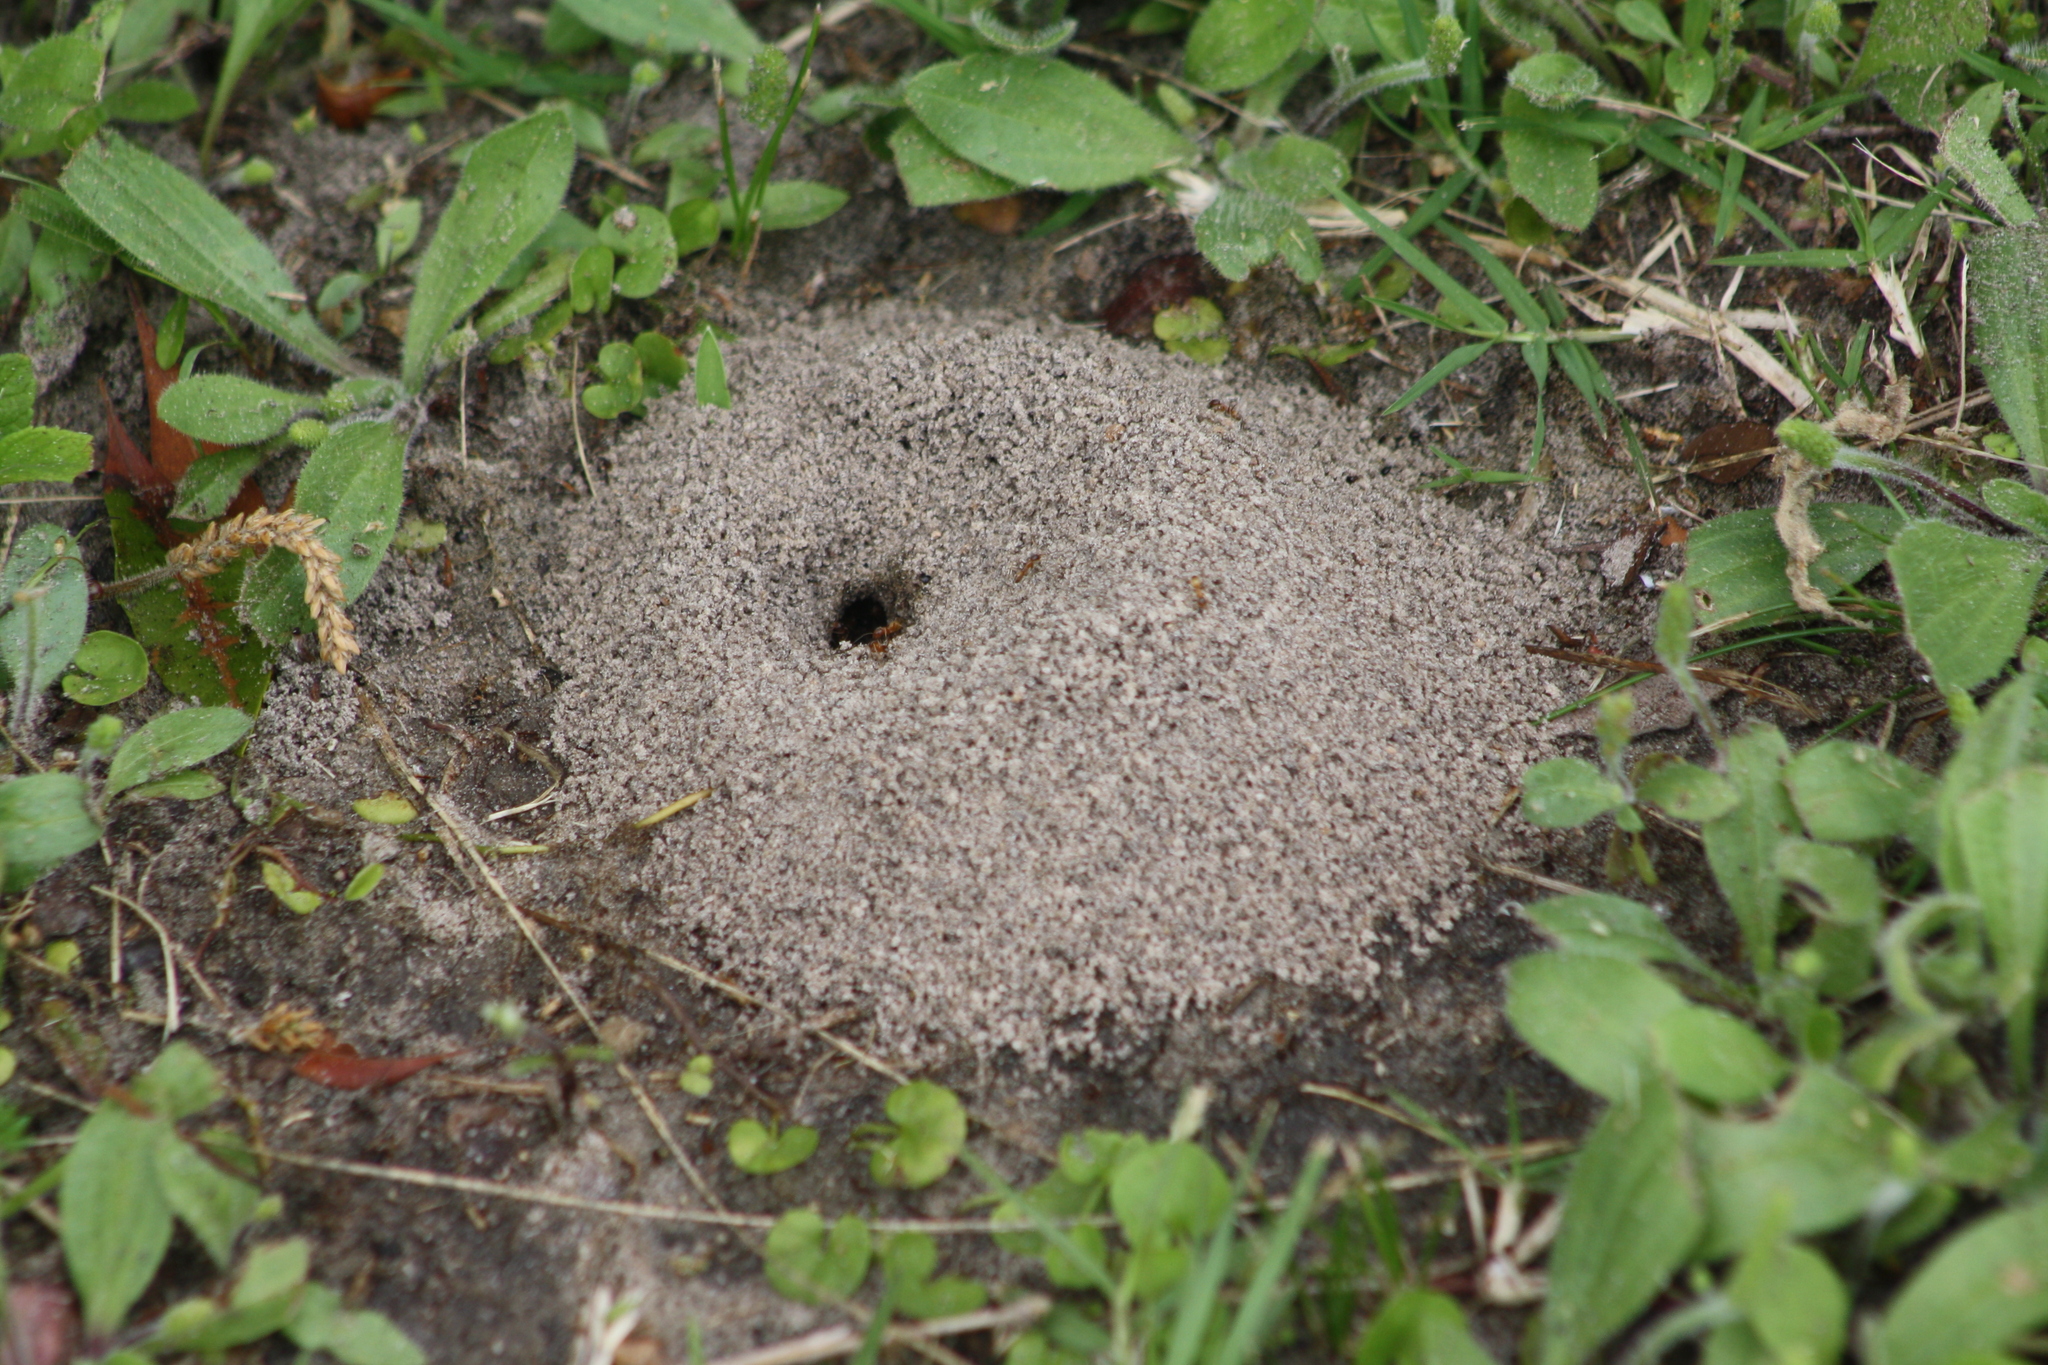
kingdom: Animalia
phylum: Arthropoda
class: Insecta
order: Hymenoptera
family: Formicidae
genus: Dorymyrmex
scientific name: Dorymyrmex flavus
